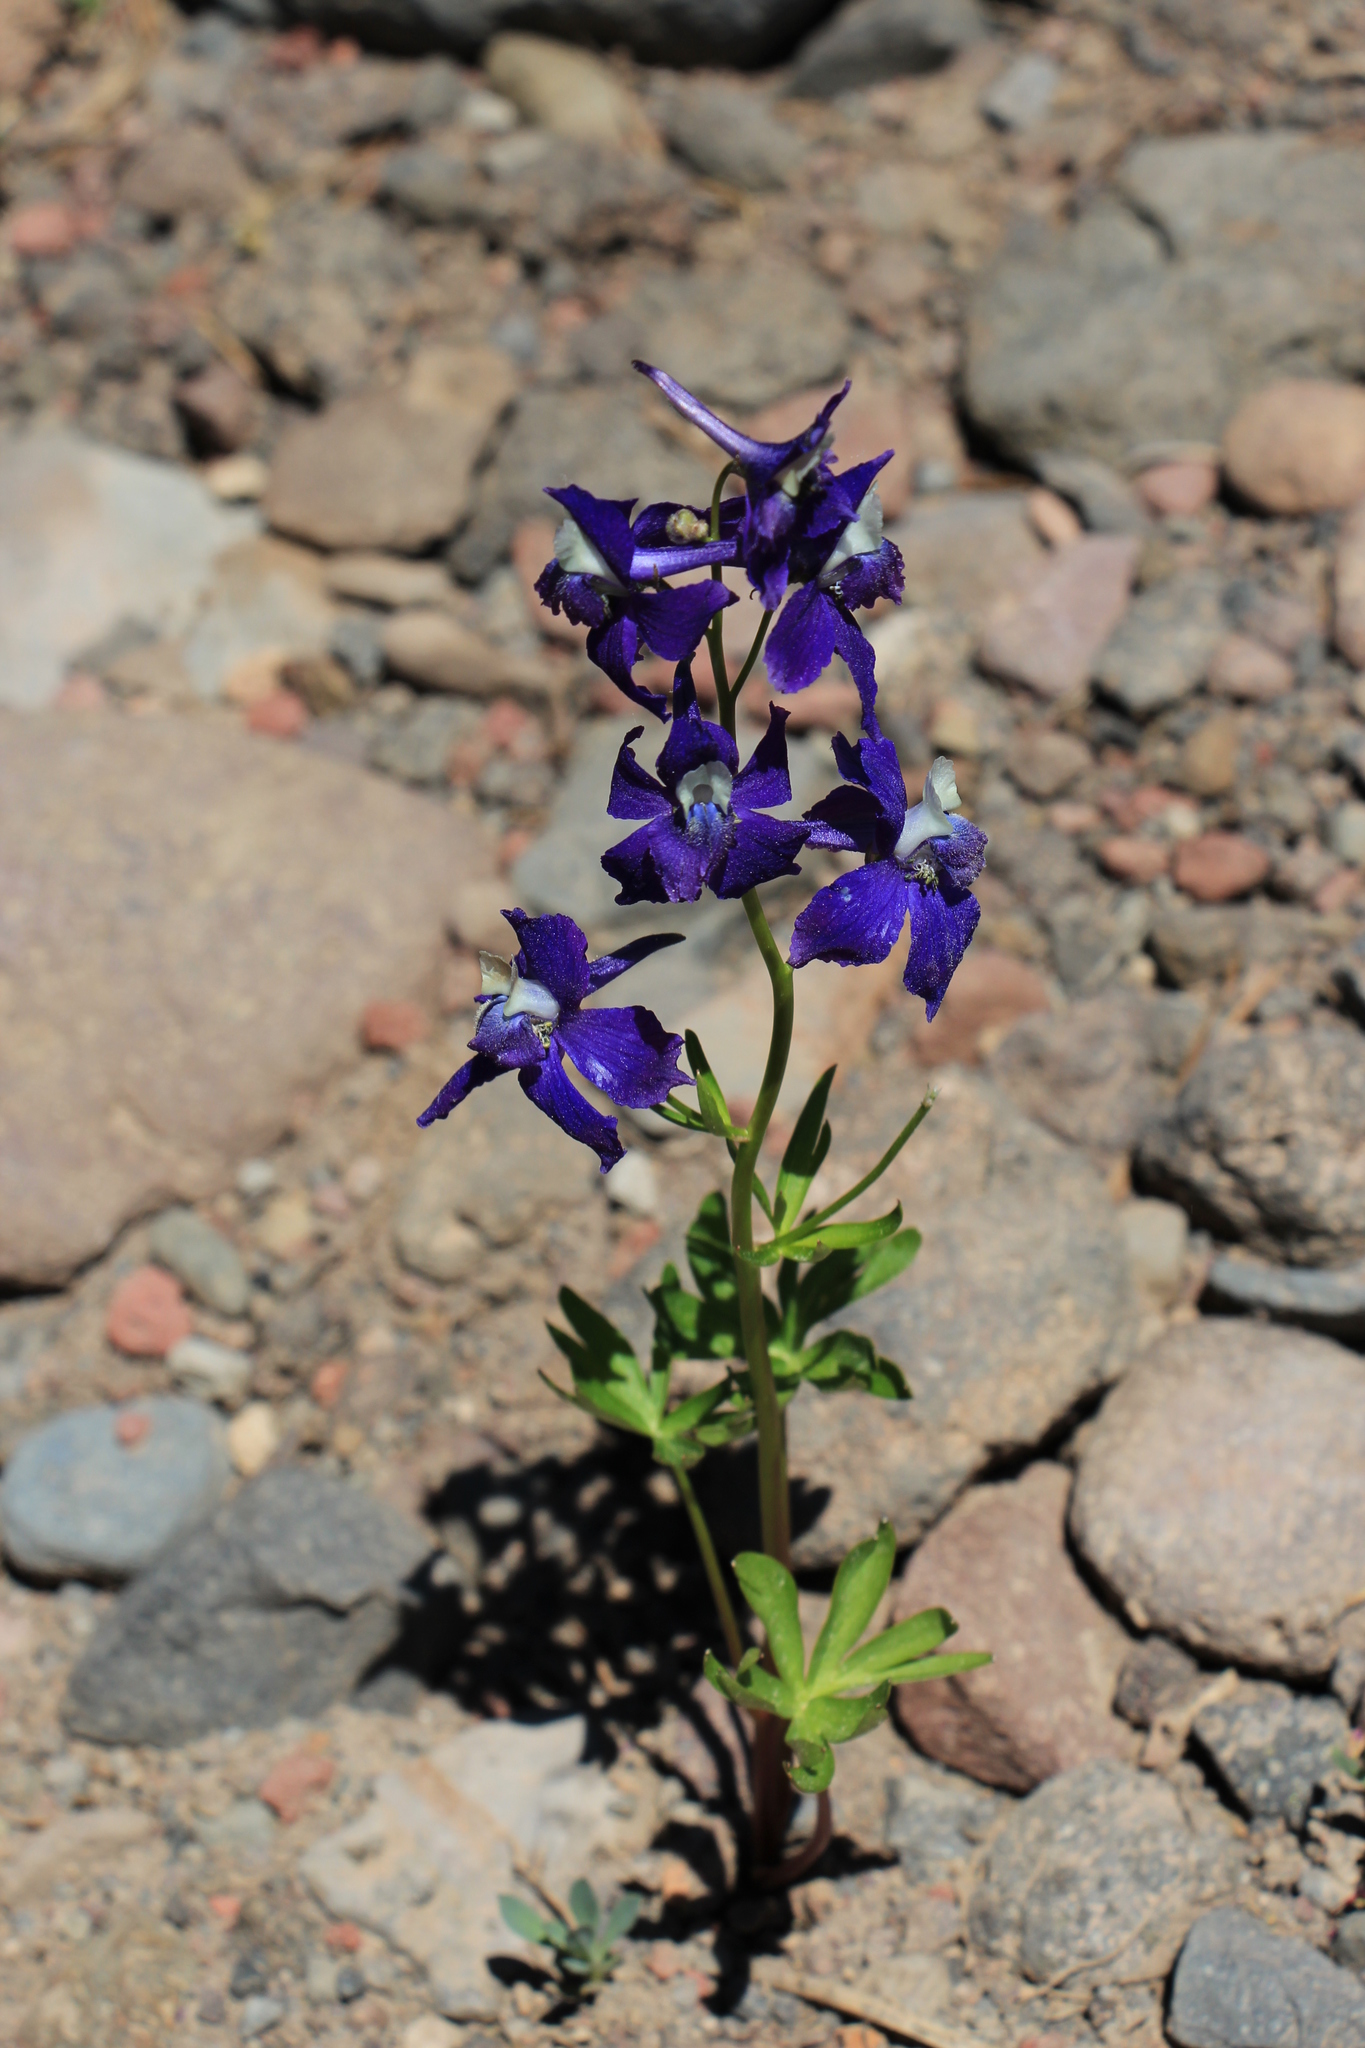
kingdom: Plantae
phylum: Tracheophyta
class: Magnoliopsida
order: Ranunculales
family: Ranunculaceae
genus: Delphinium
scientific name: Delphinium menziesii
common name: Menzies's larkspur
